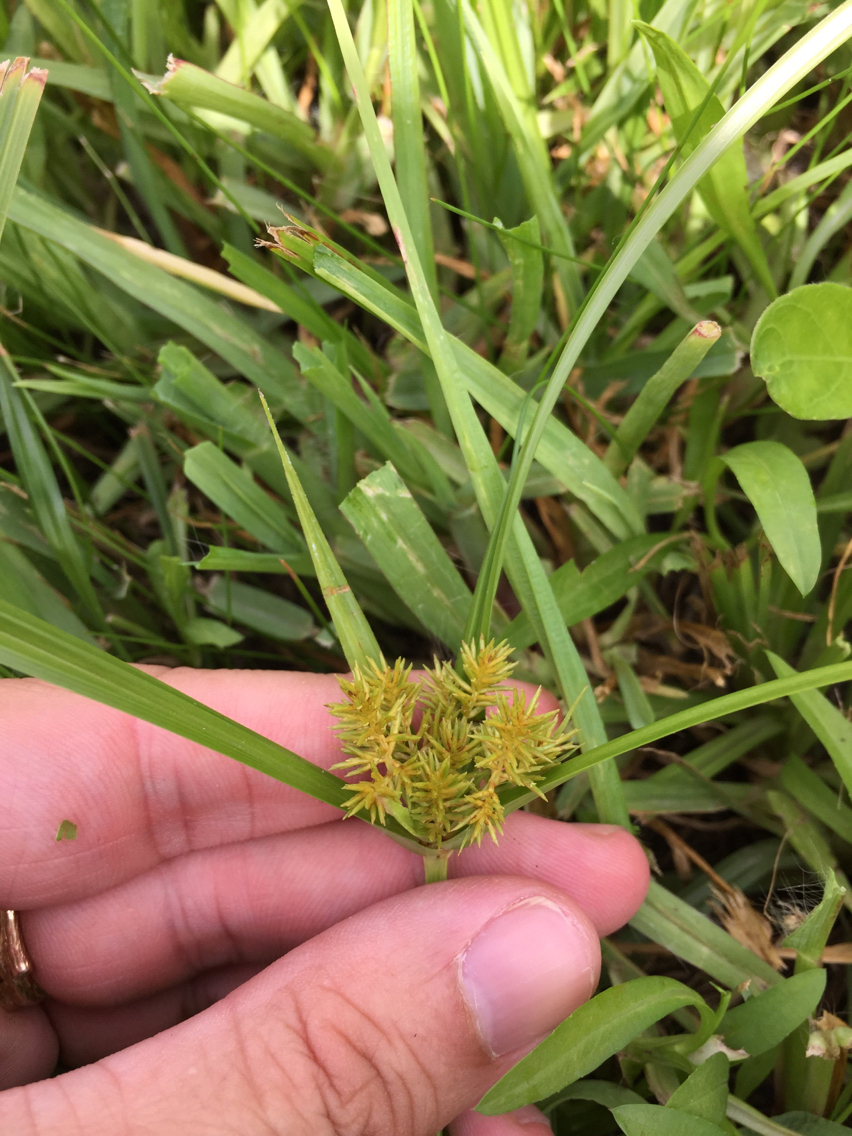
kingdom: Plantae
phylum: Tracheophyta
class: Liliopsida
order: Poales
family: Cyperaceae
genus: Cyperus
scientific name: Cyperus odoratus
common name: Fragrant flatsedge
